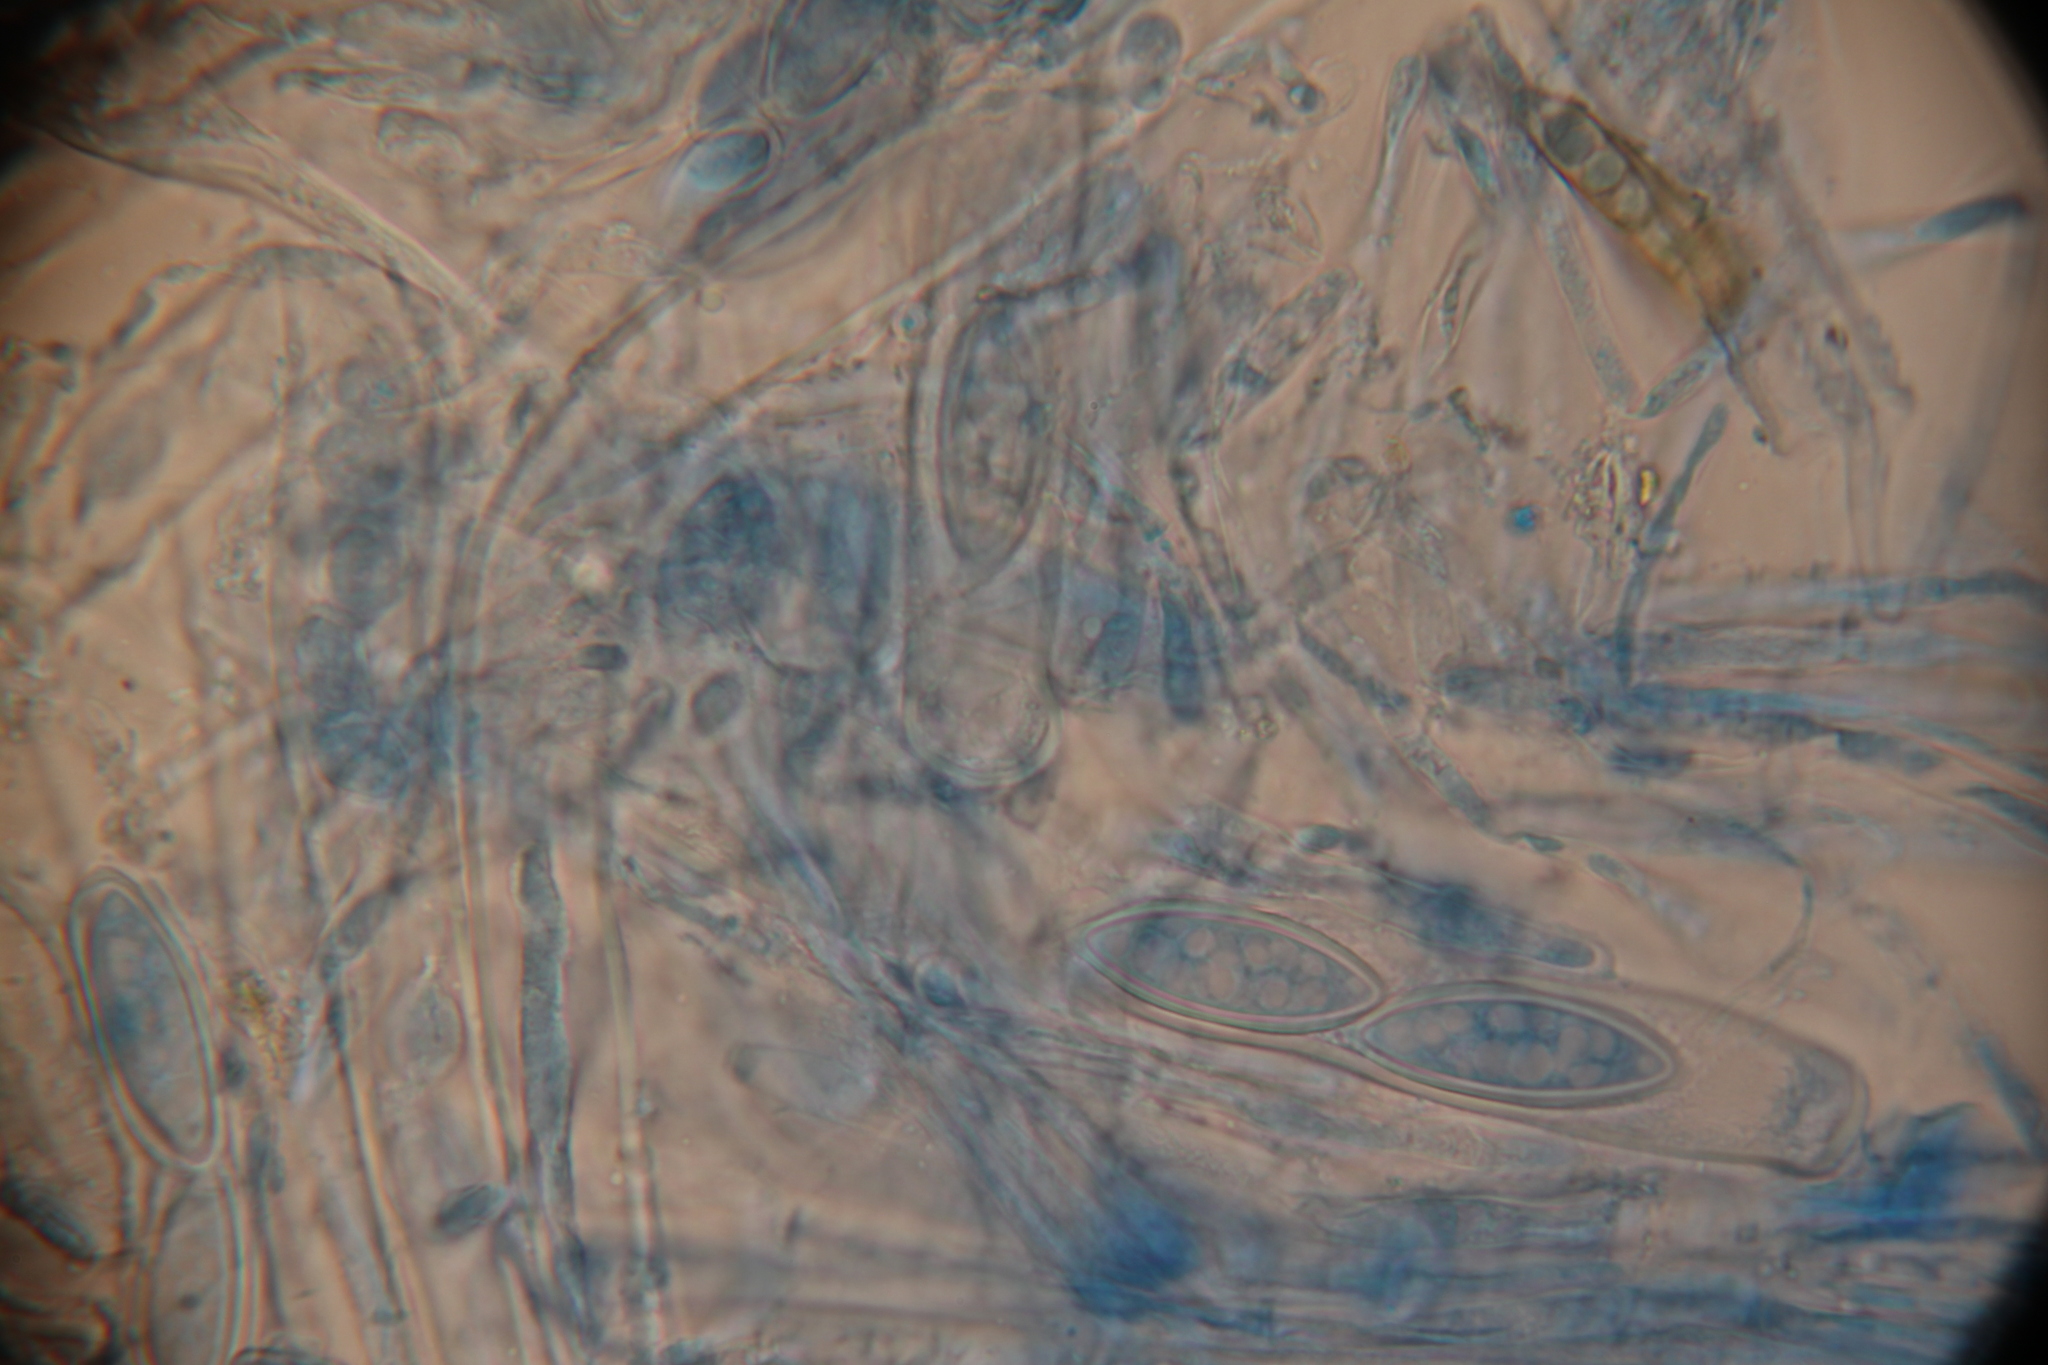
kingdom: Fungi
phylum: Ascomycota
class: Pezizomycetes
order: Pezizales
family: Wynneaceae
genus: Wynnea
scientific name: Wynnea americana
